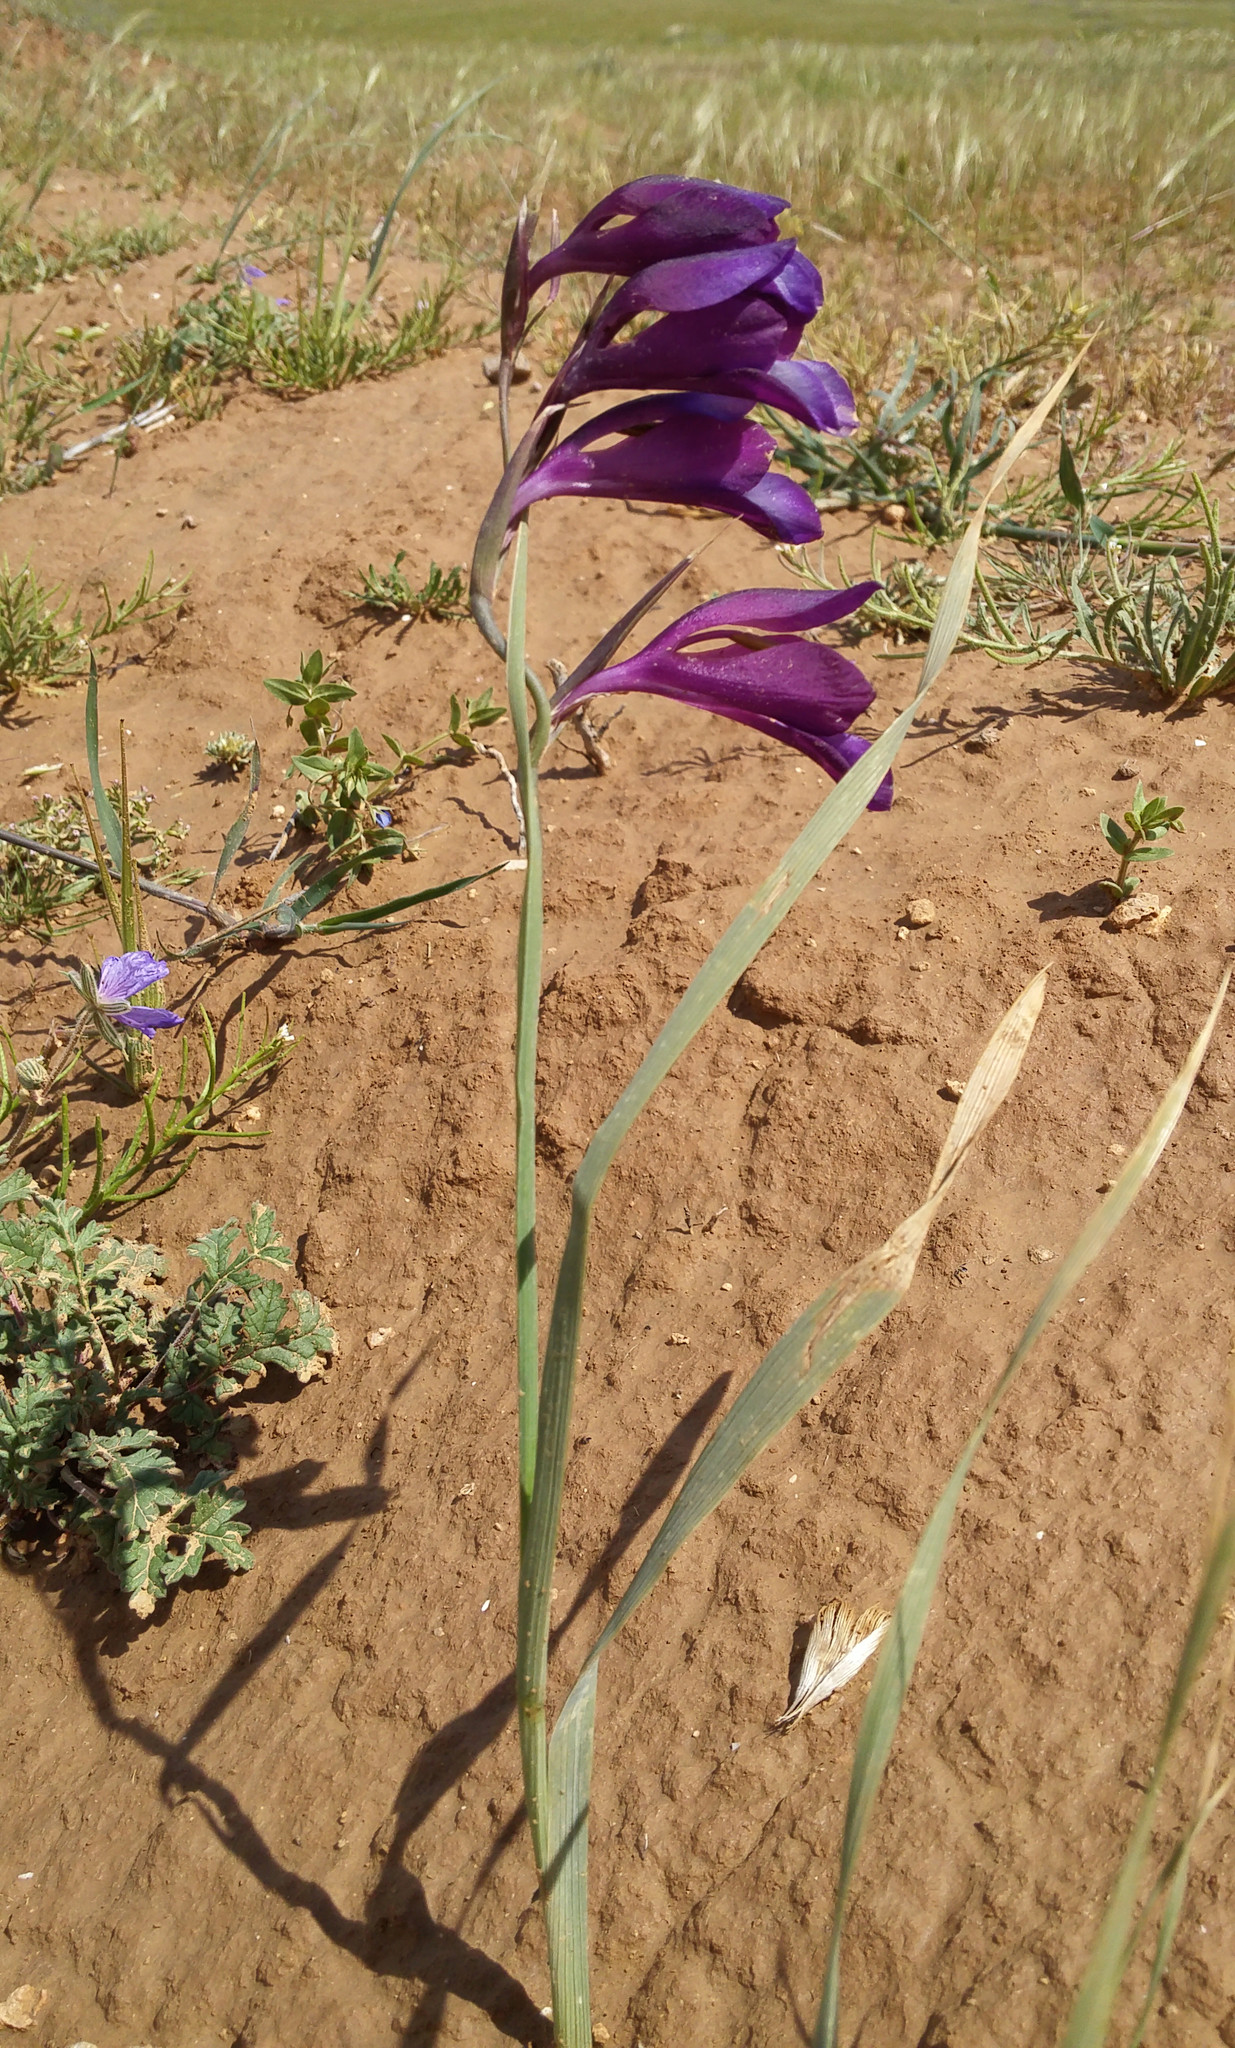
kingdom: Plantae
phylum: Tracheophyta
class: Liliopsida
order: Asparagales
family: Iridaceae
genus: Gladiolus
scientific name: Gladiolus atroviolaceus
